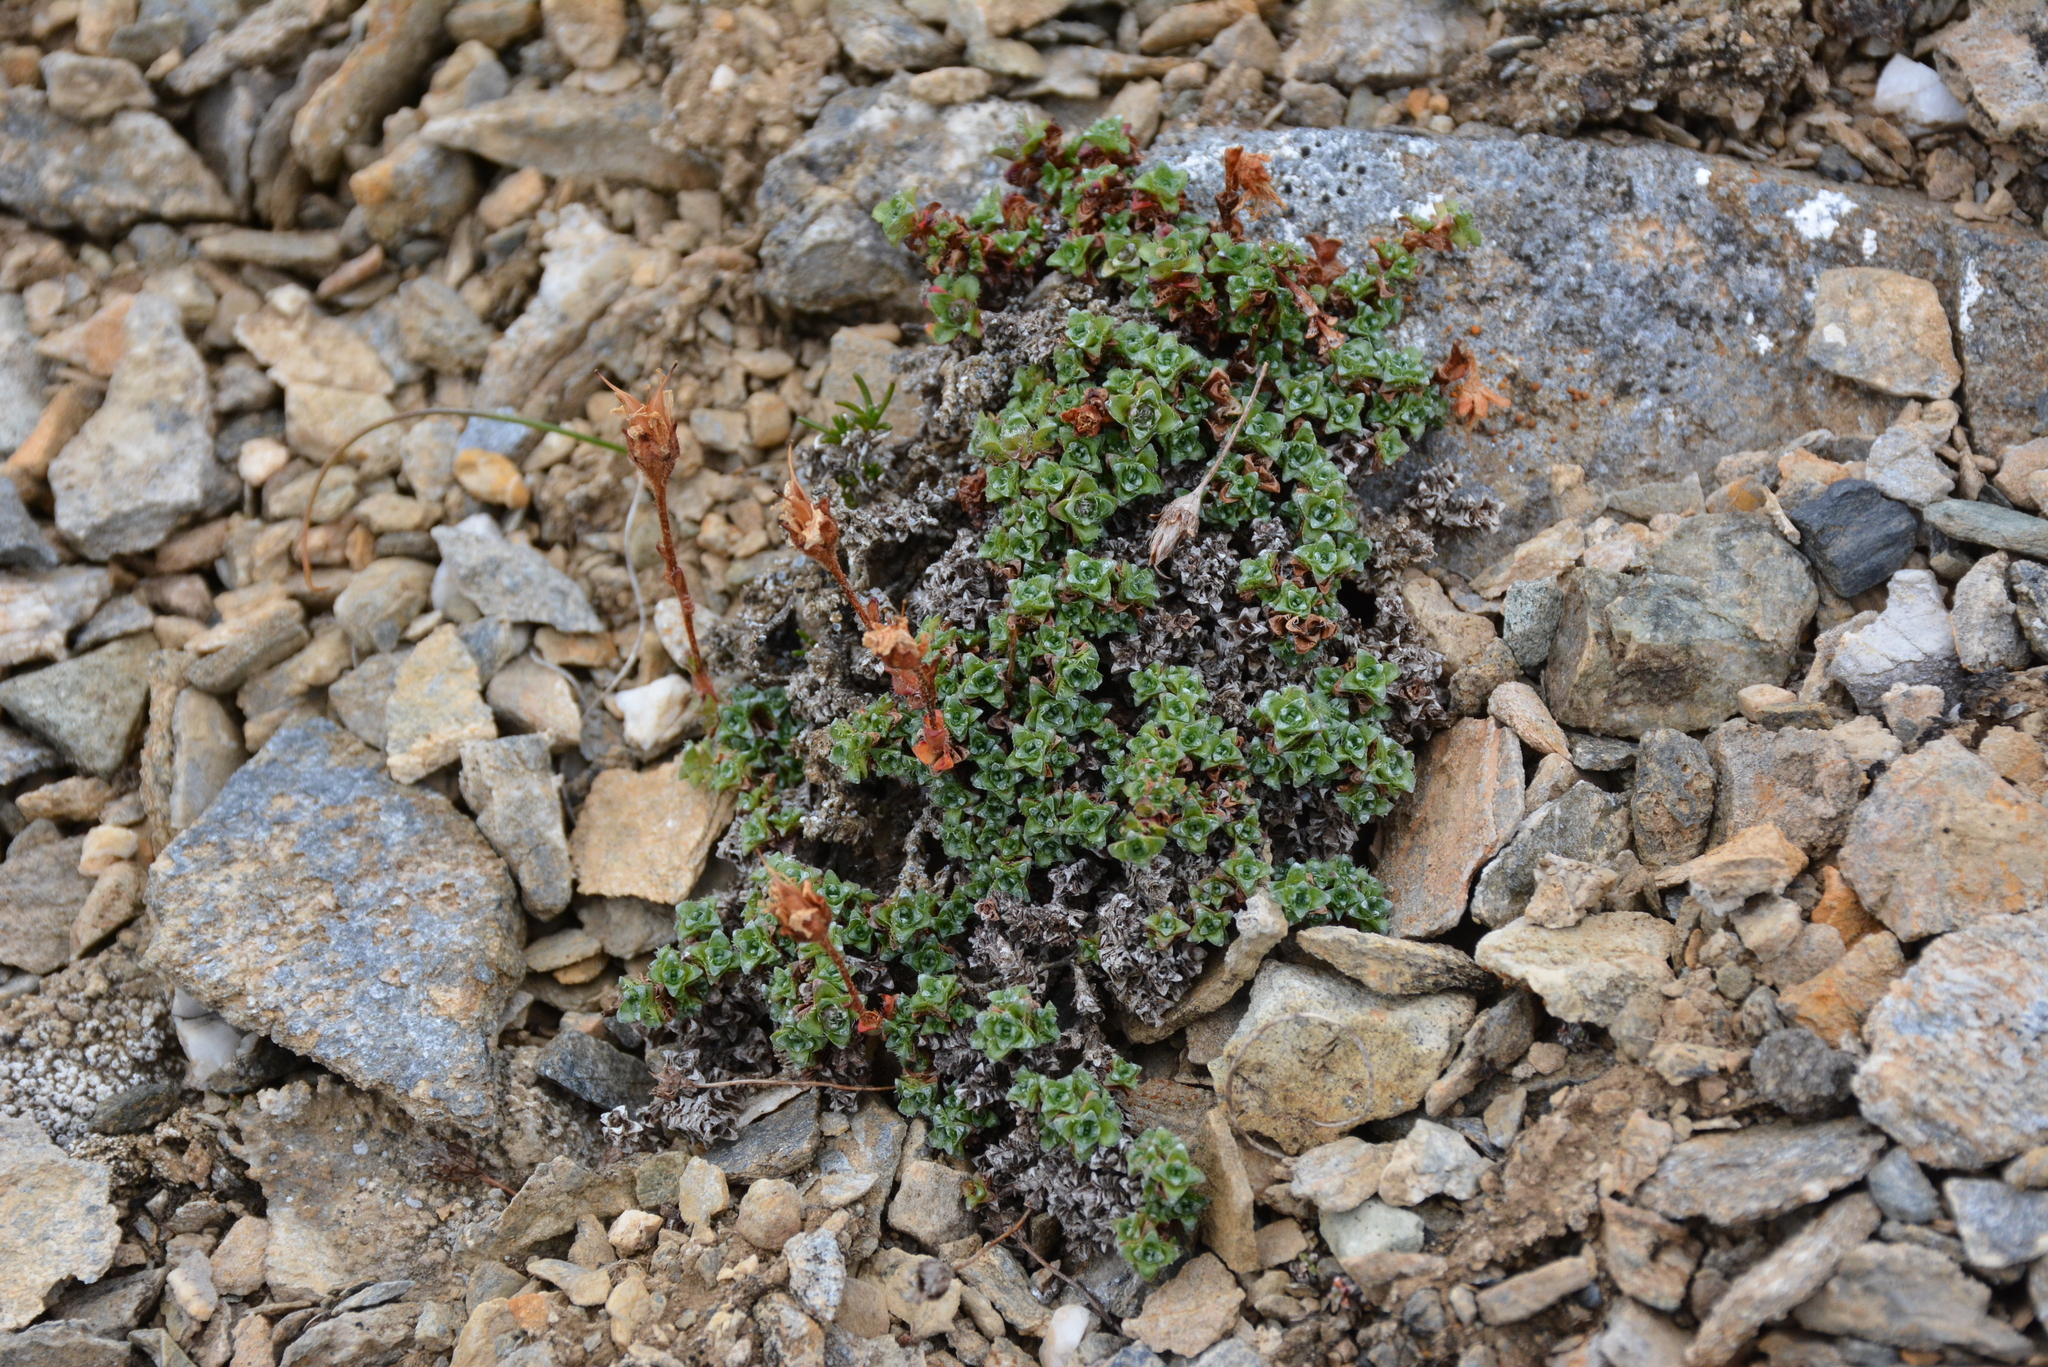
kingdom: Plantae
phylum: Tracheophyta
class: Magnoliopsida
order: Saxifragales
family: Saxifragaceae
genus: Saxifraga
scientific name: Saxifraga oppositifolia
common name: Purple saxifrage
